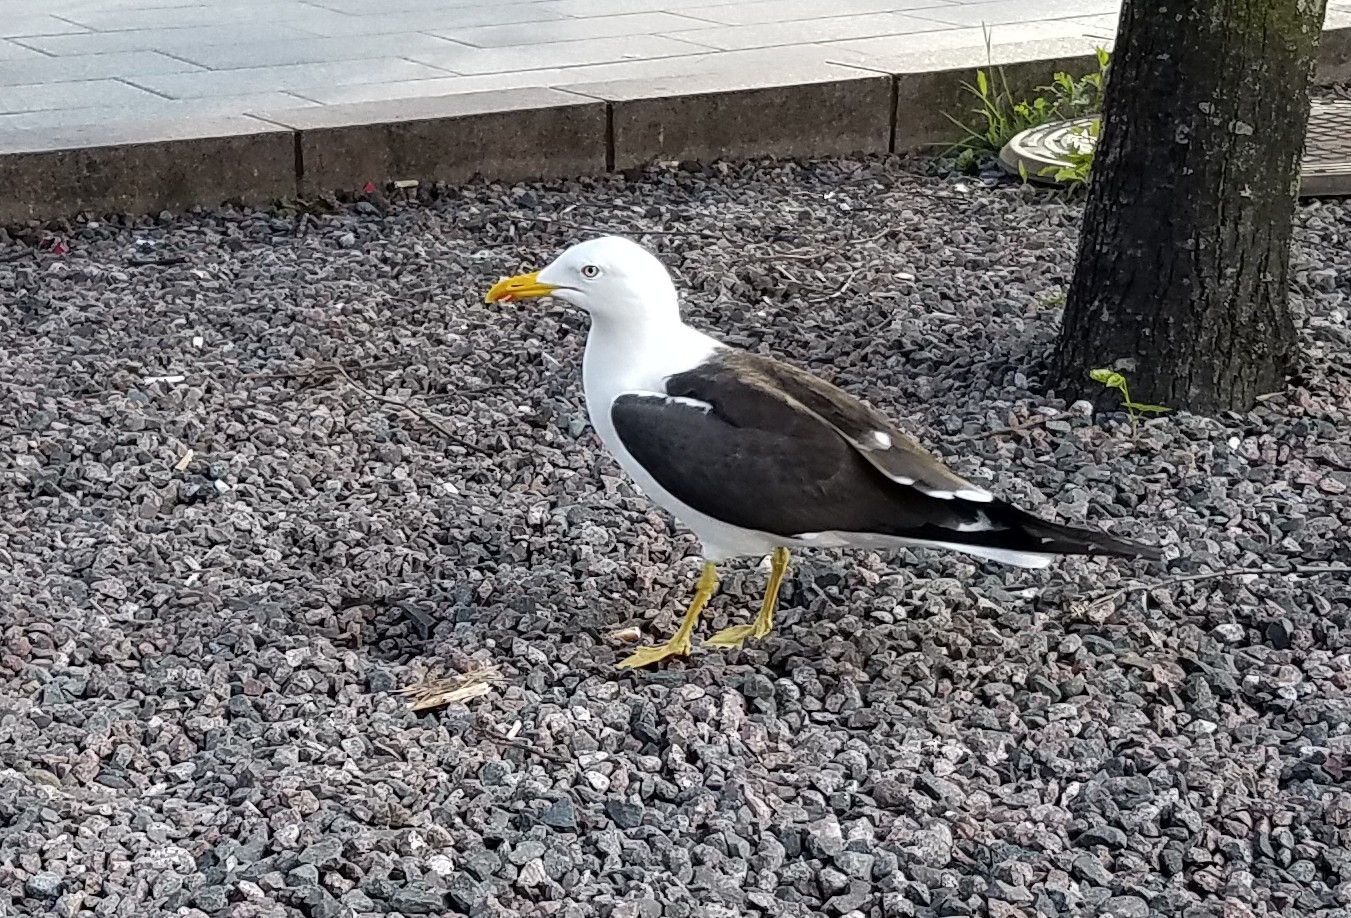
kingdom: Animalia
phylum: Chordata
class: Aves
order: Charadriiformes
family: Laridae
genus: Larus
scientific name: Larus fuscus
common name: Lesser black-backed gull
